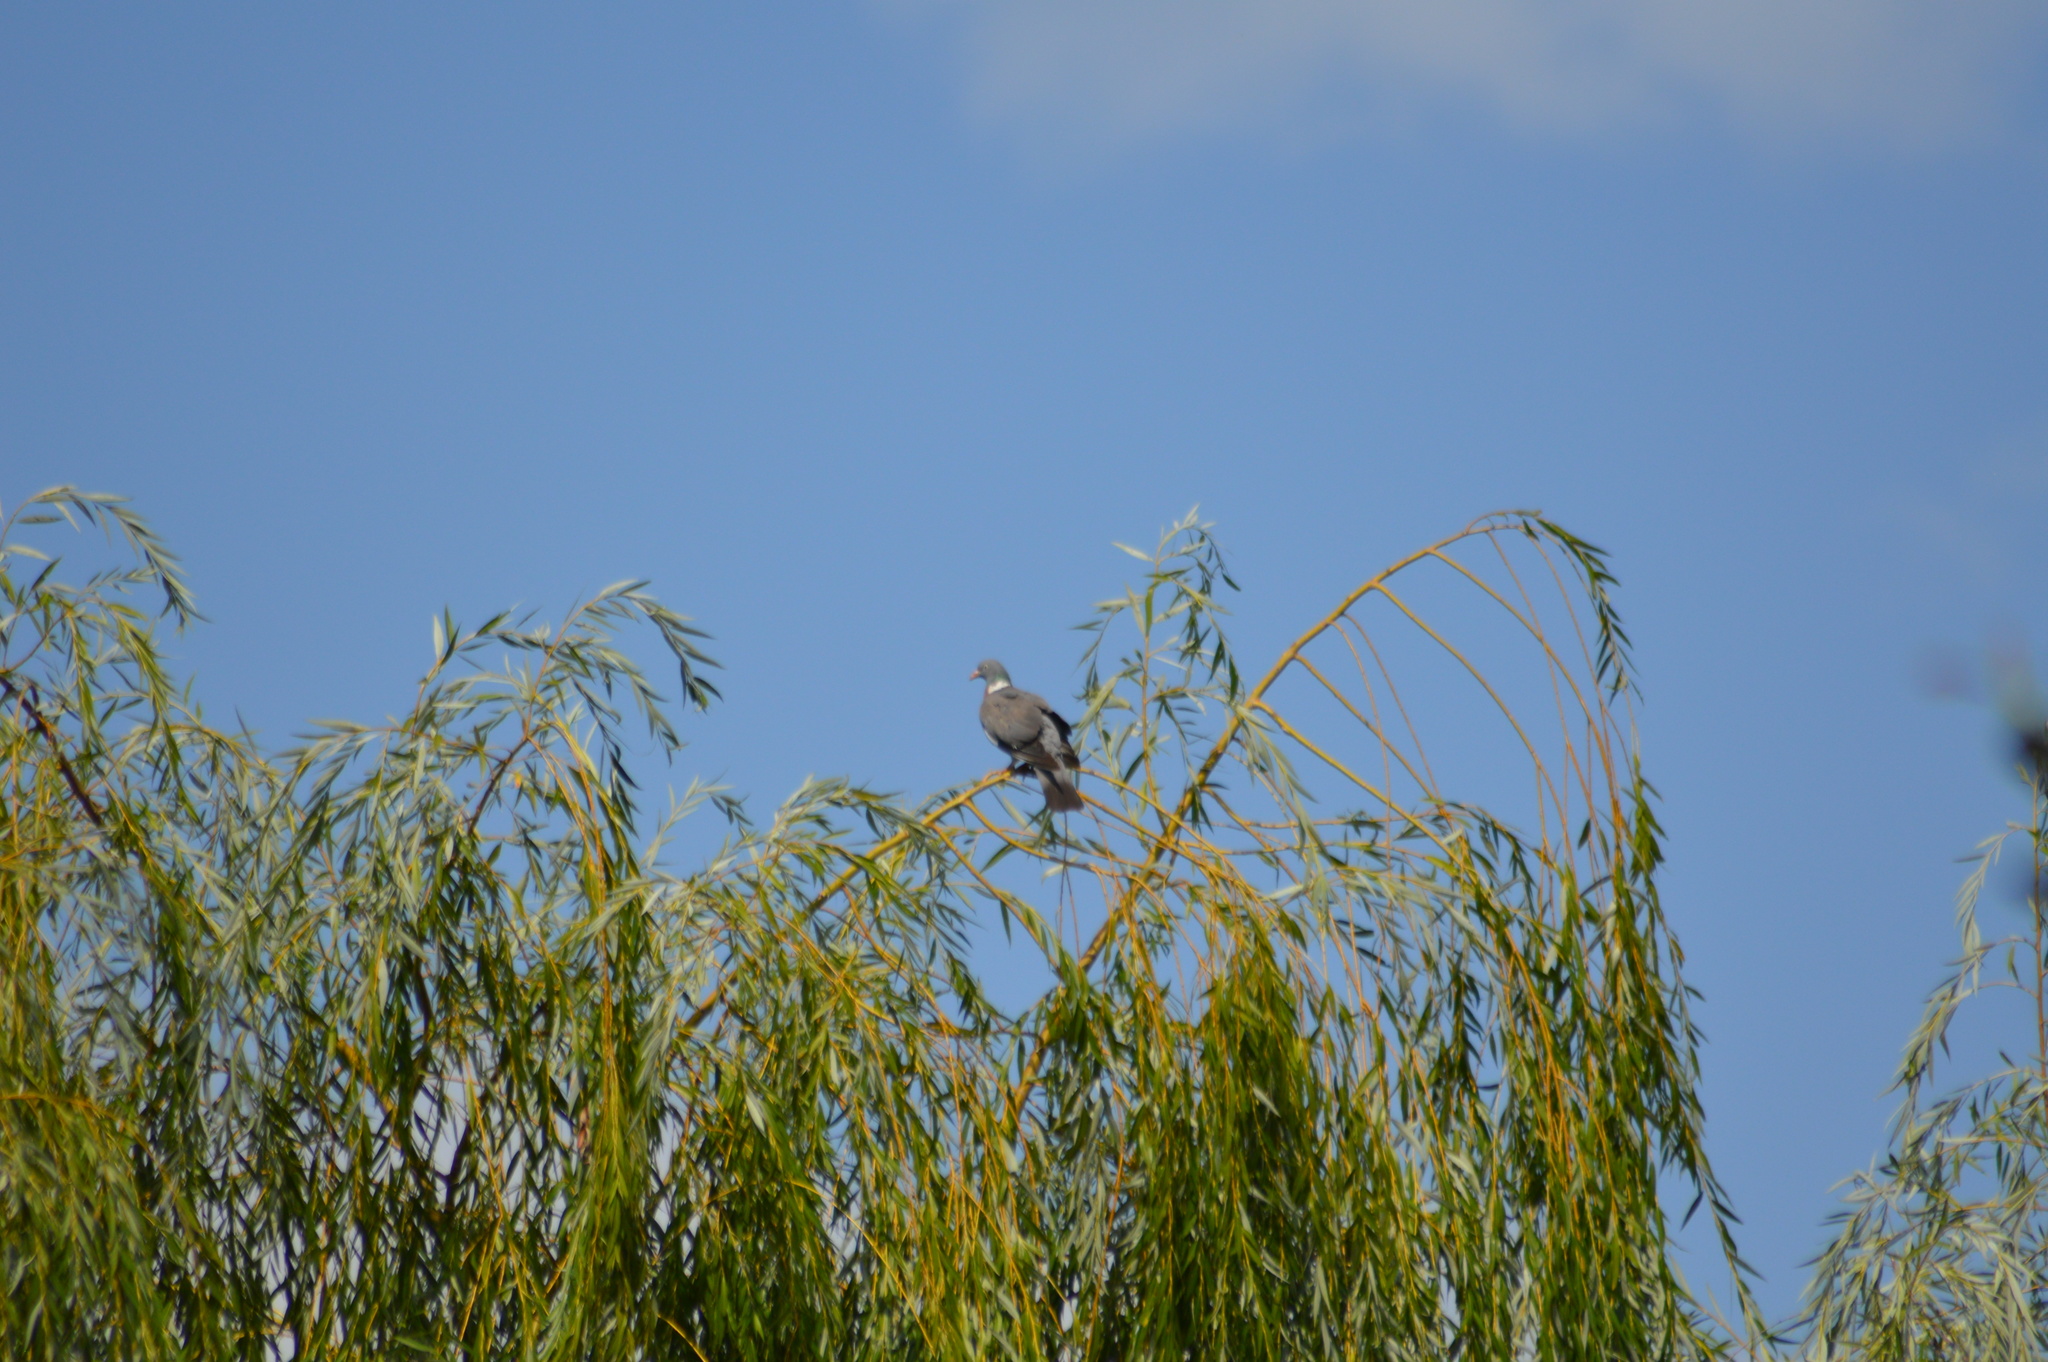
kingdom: Animalia
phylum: Chordata
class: Aves
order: Columbiformes
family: Columbidae
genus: Columba
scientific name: Columba palumbus
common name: Common wood pigeon
